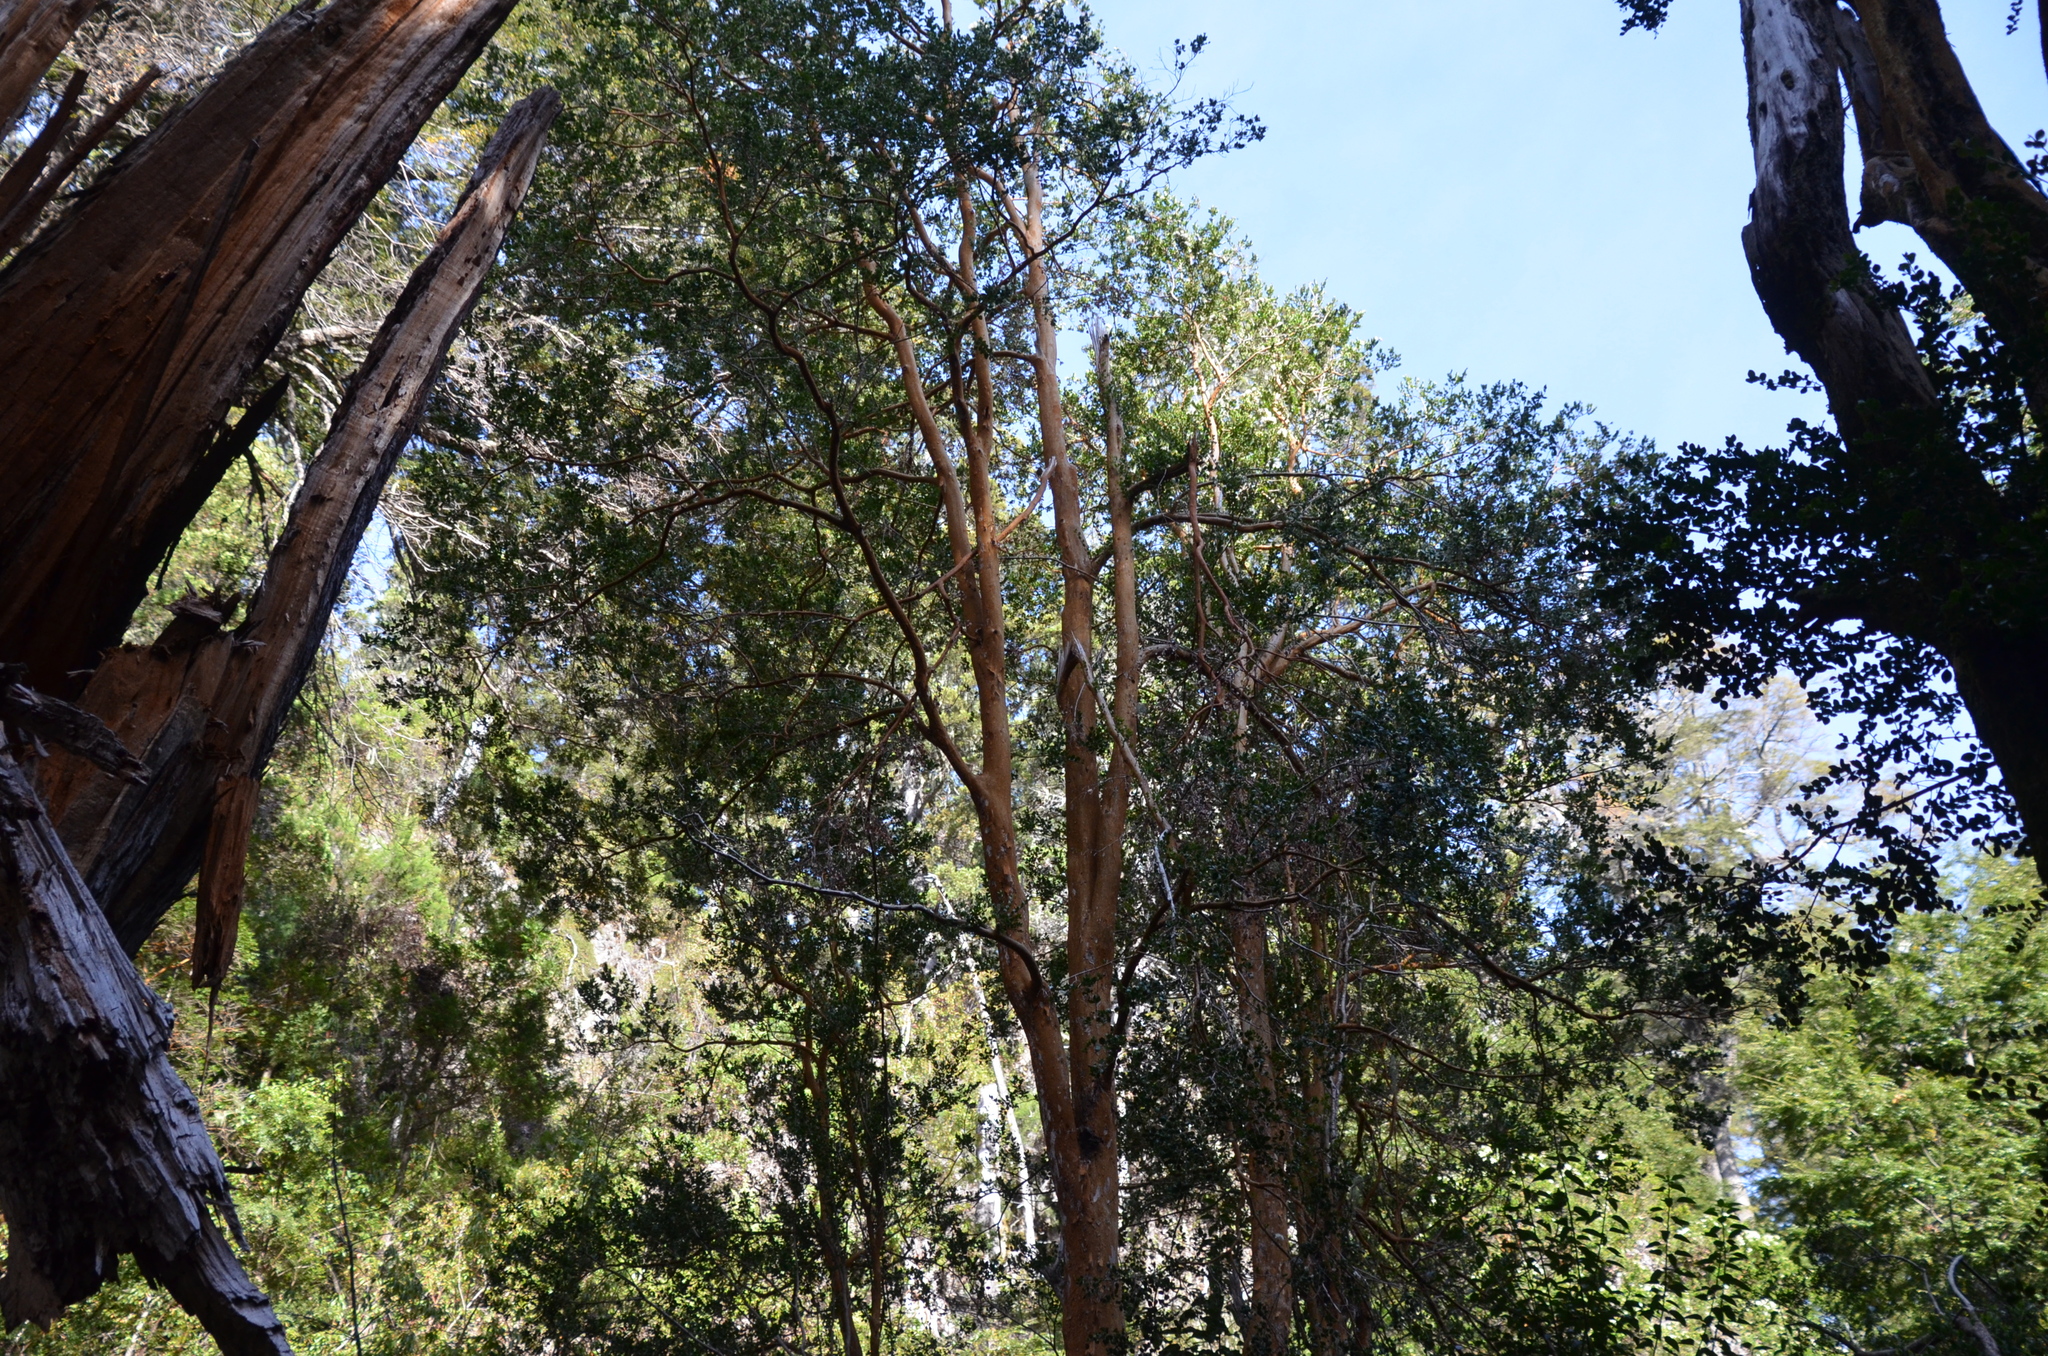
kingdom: Plantae
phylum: Tracheophyta
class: Magnoliopsida
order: Myrtales
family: Myrtaceae
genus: Luma
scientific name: Luma apiculata
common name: Chilean myrtle
